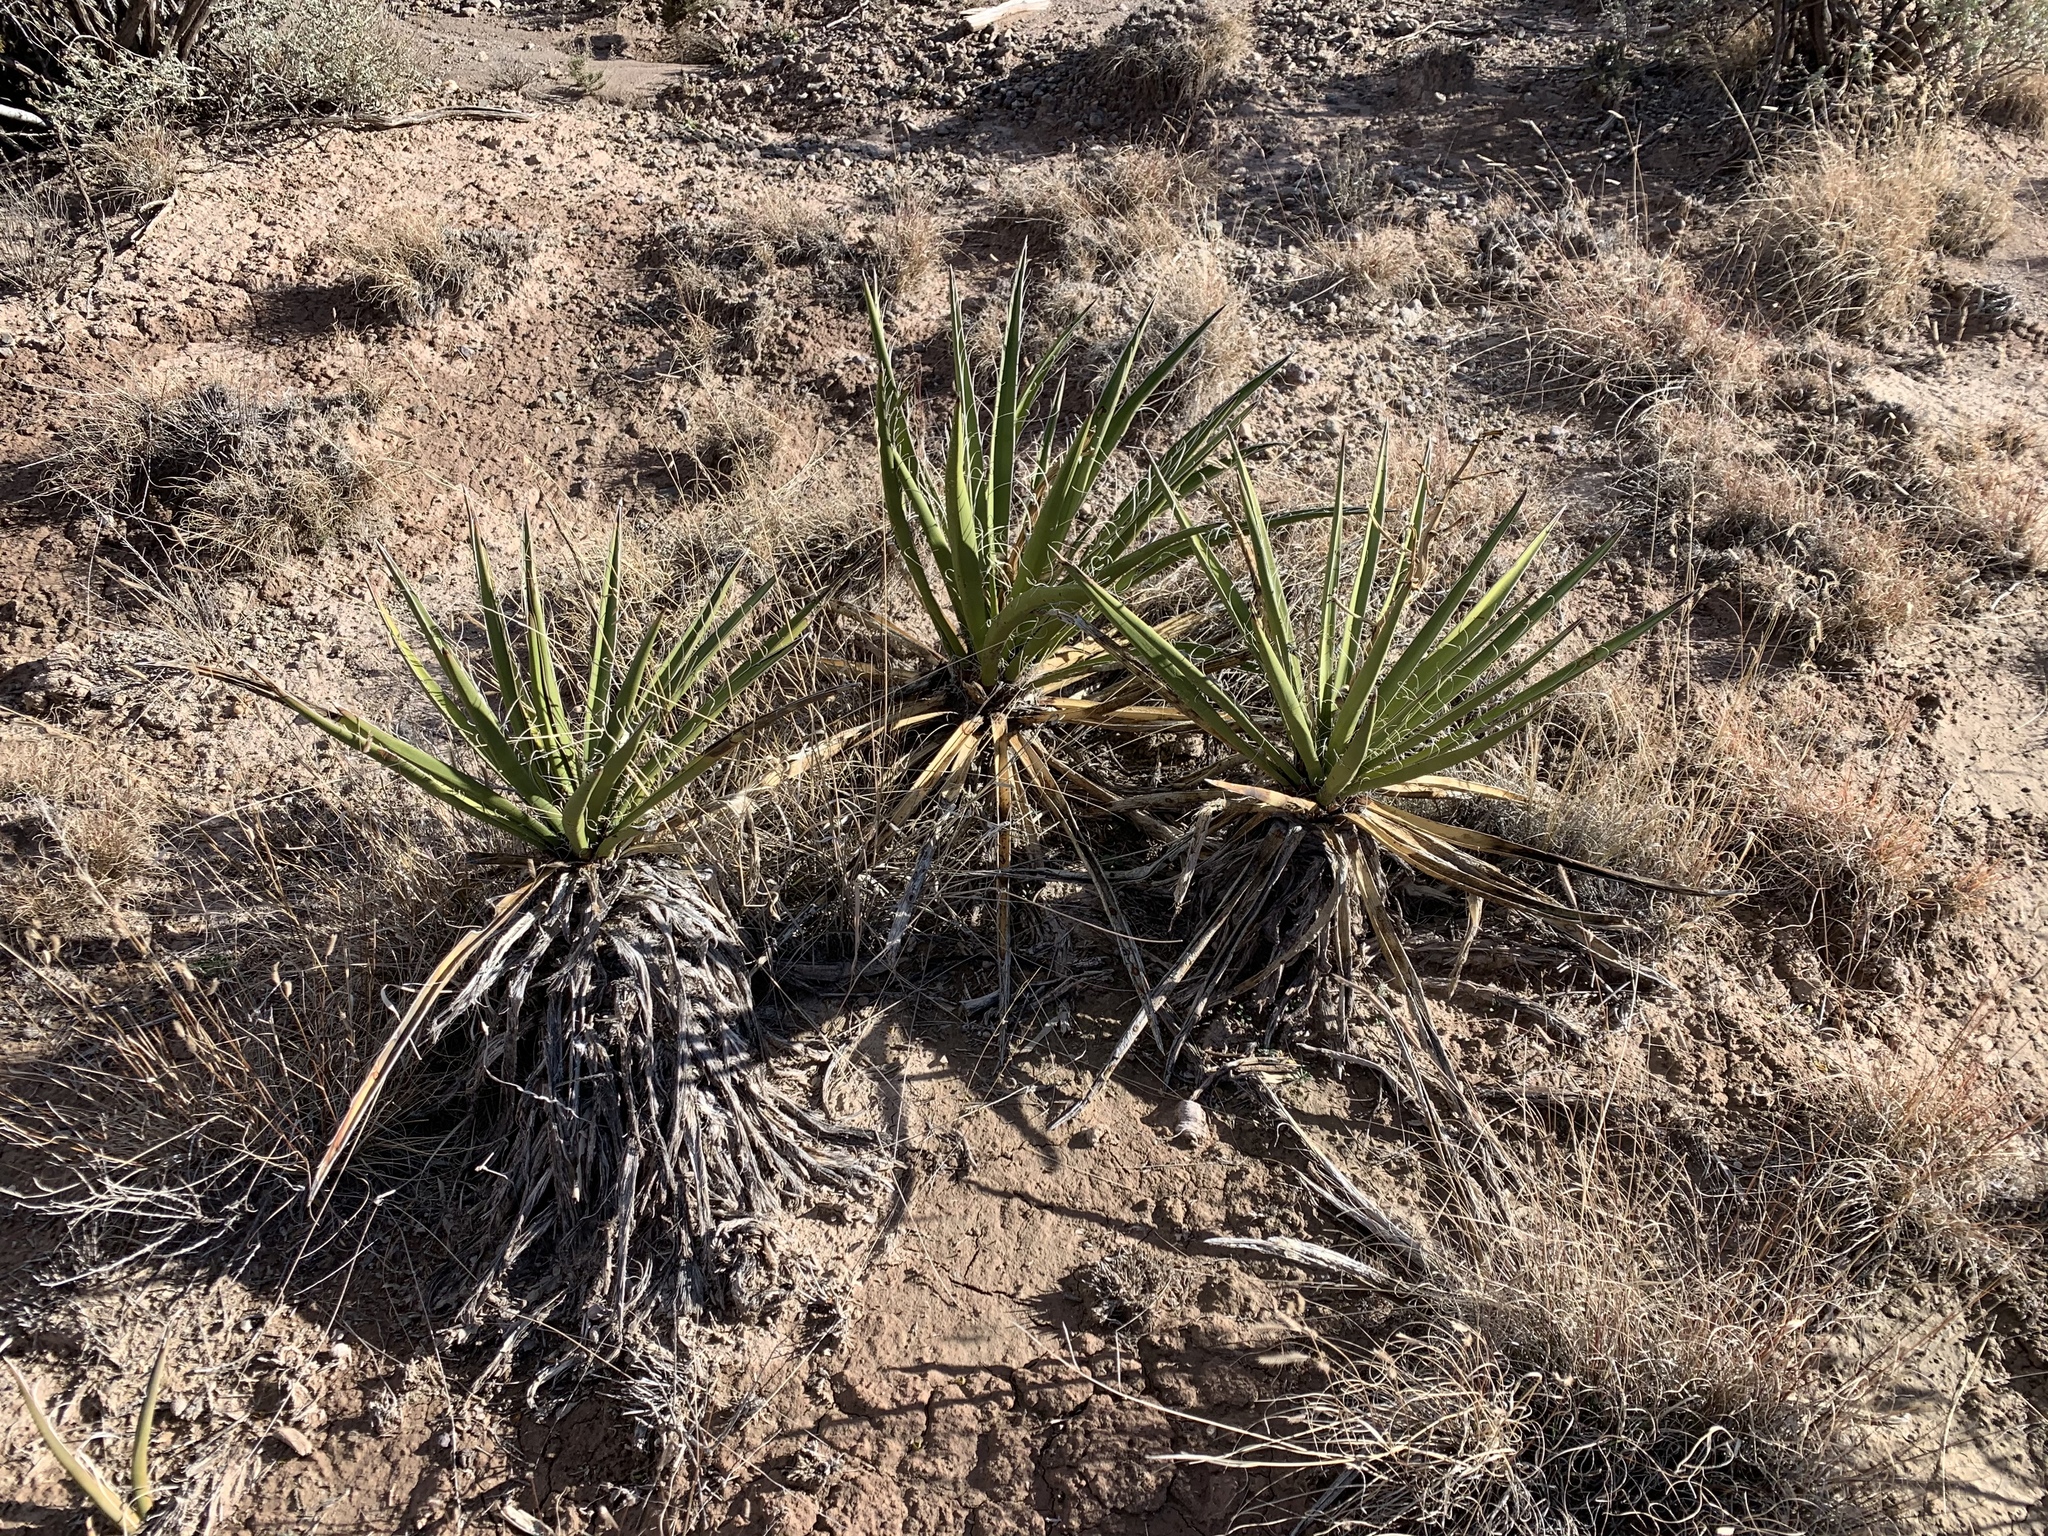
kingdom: Plantae
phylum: Tracheophyta
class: Liliopsida
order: Asparagales
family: Asparagaceae
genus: Yucca
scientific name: Yucca baccata
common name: Banana yucca
